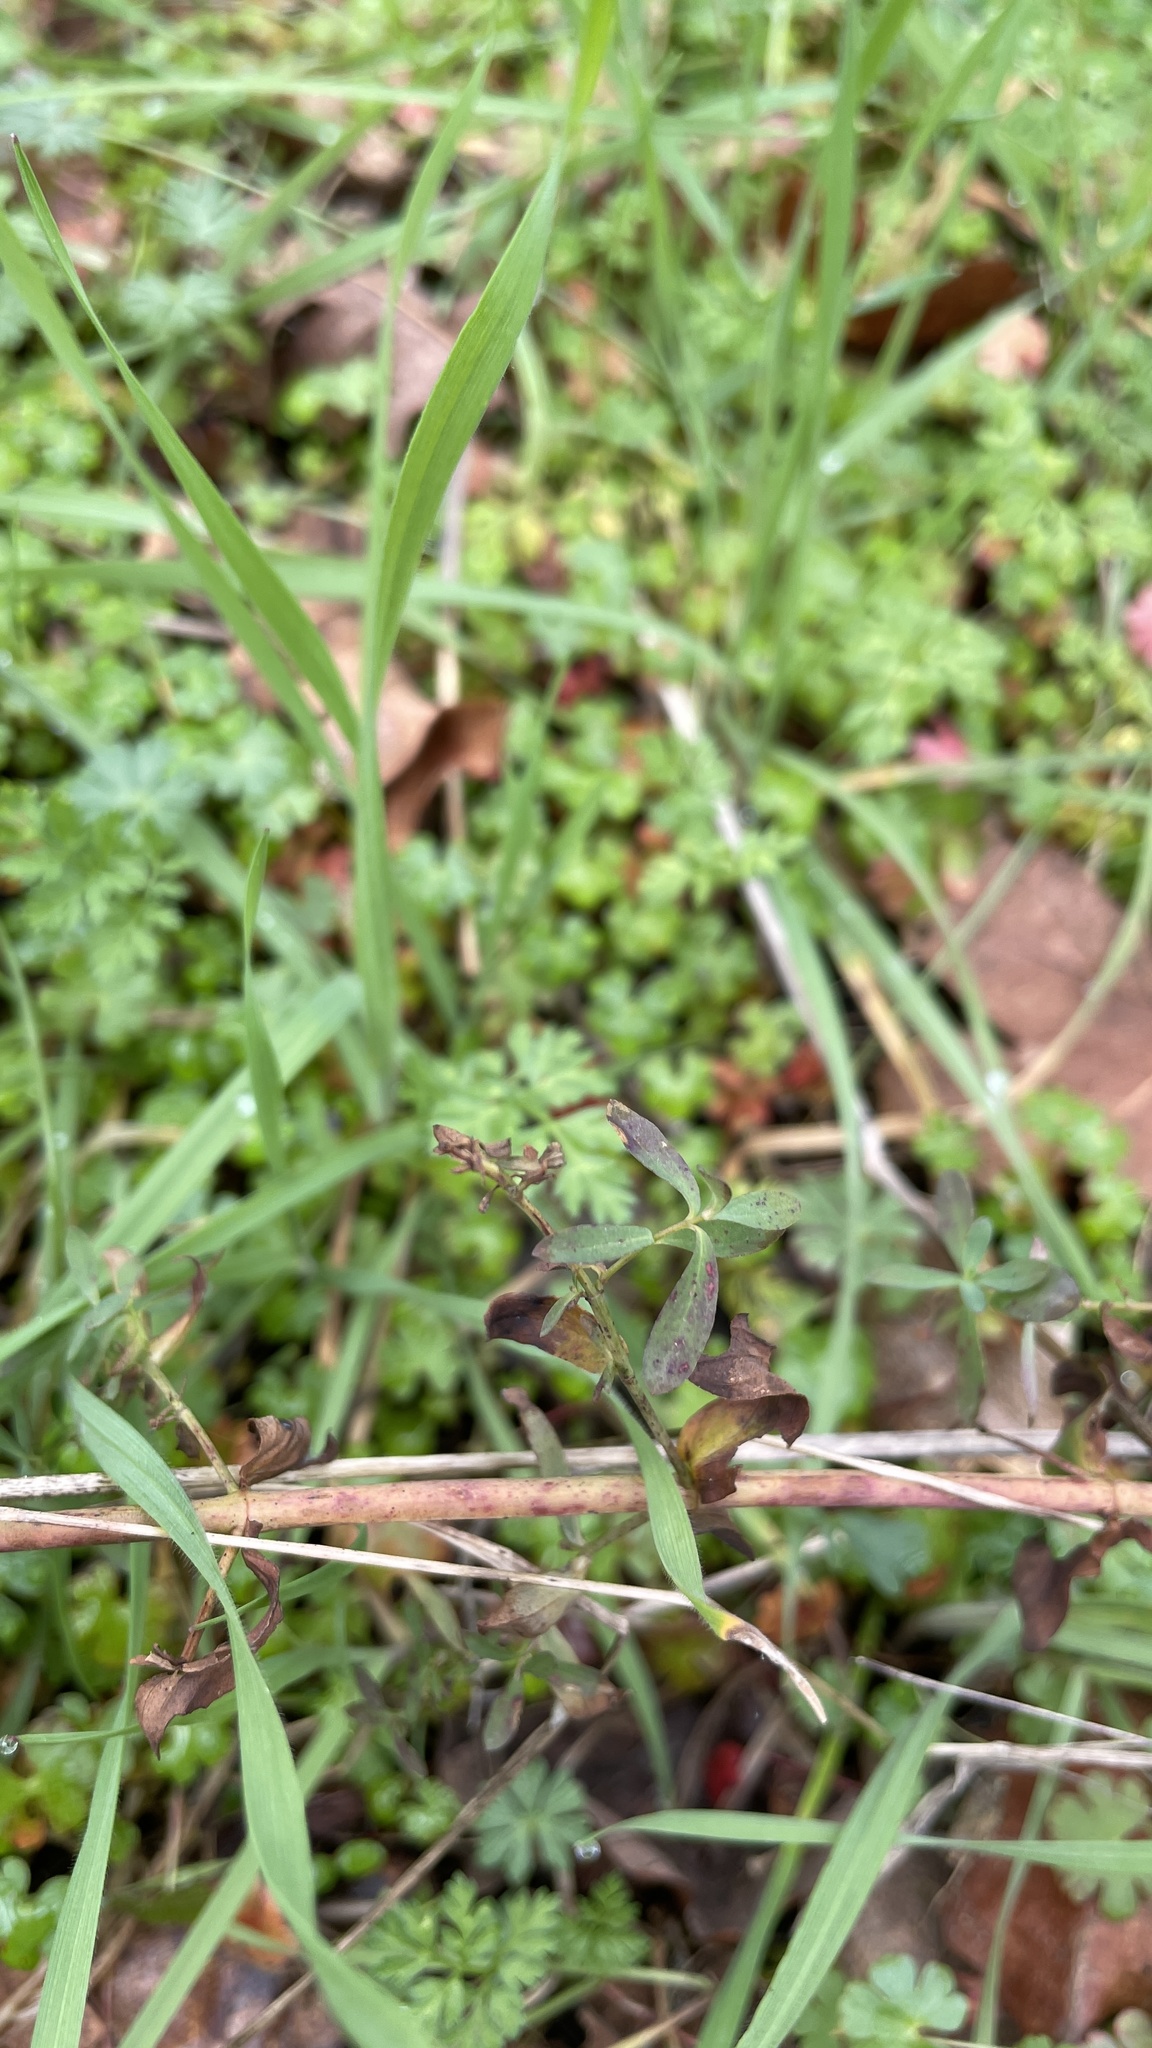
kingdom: Plantae
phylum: Tracheophyta
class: Magnoliopsida
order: Malpighiales
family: Hypericaceae
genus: Hypericum
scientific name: Hypericum perforatum
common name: Common st. johnswort
